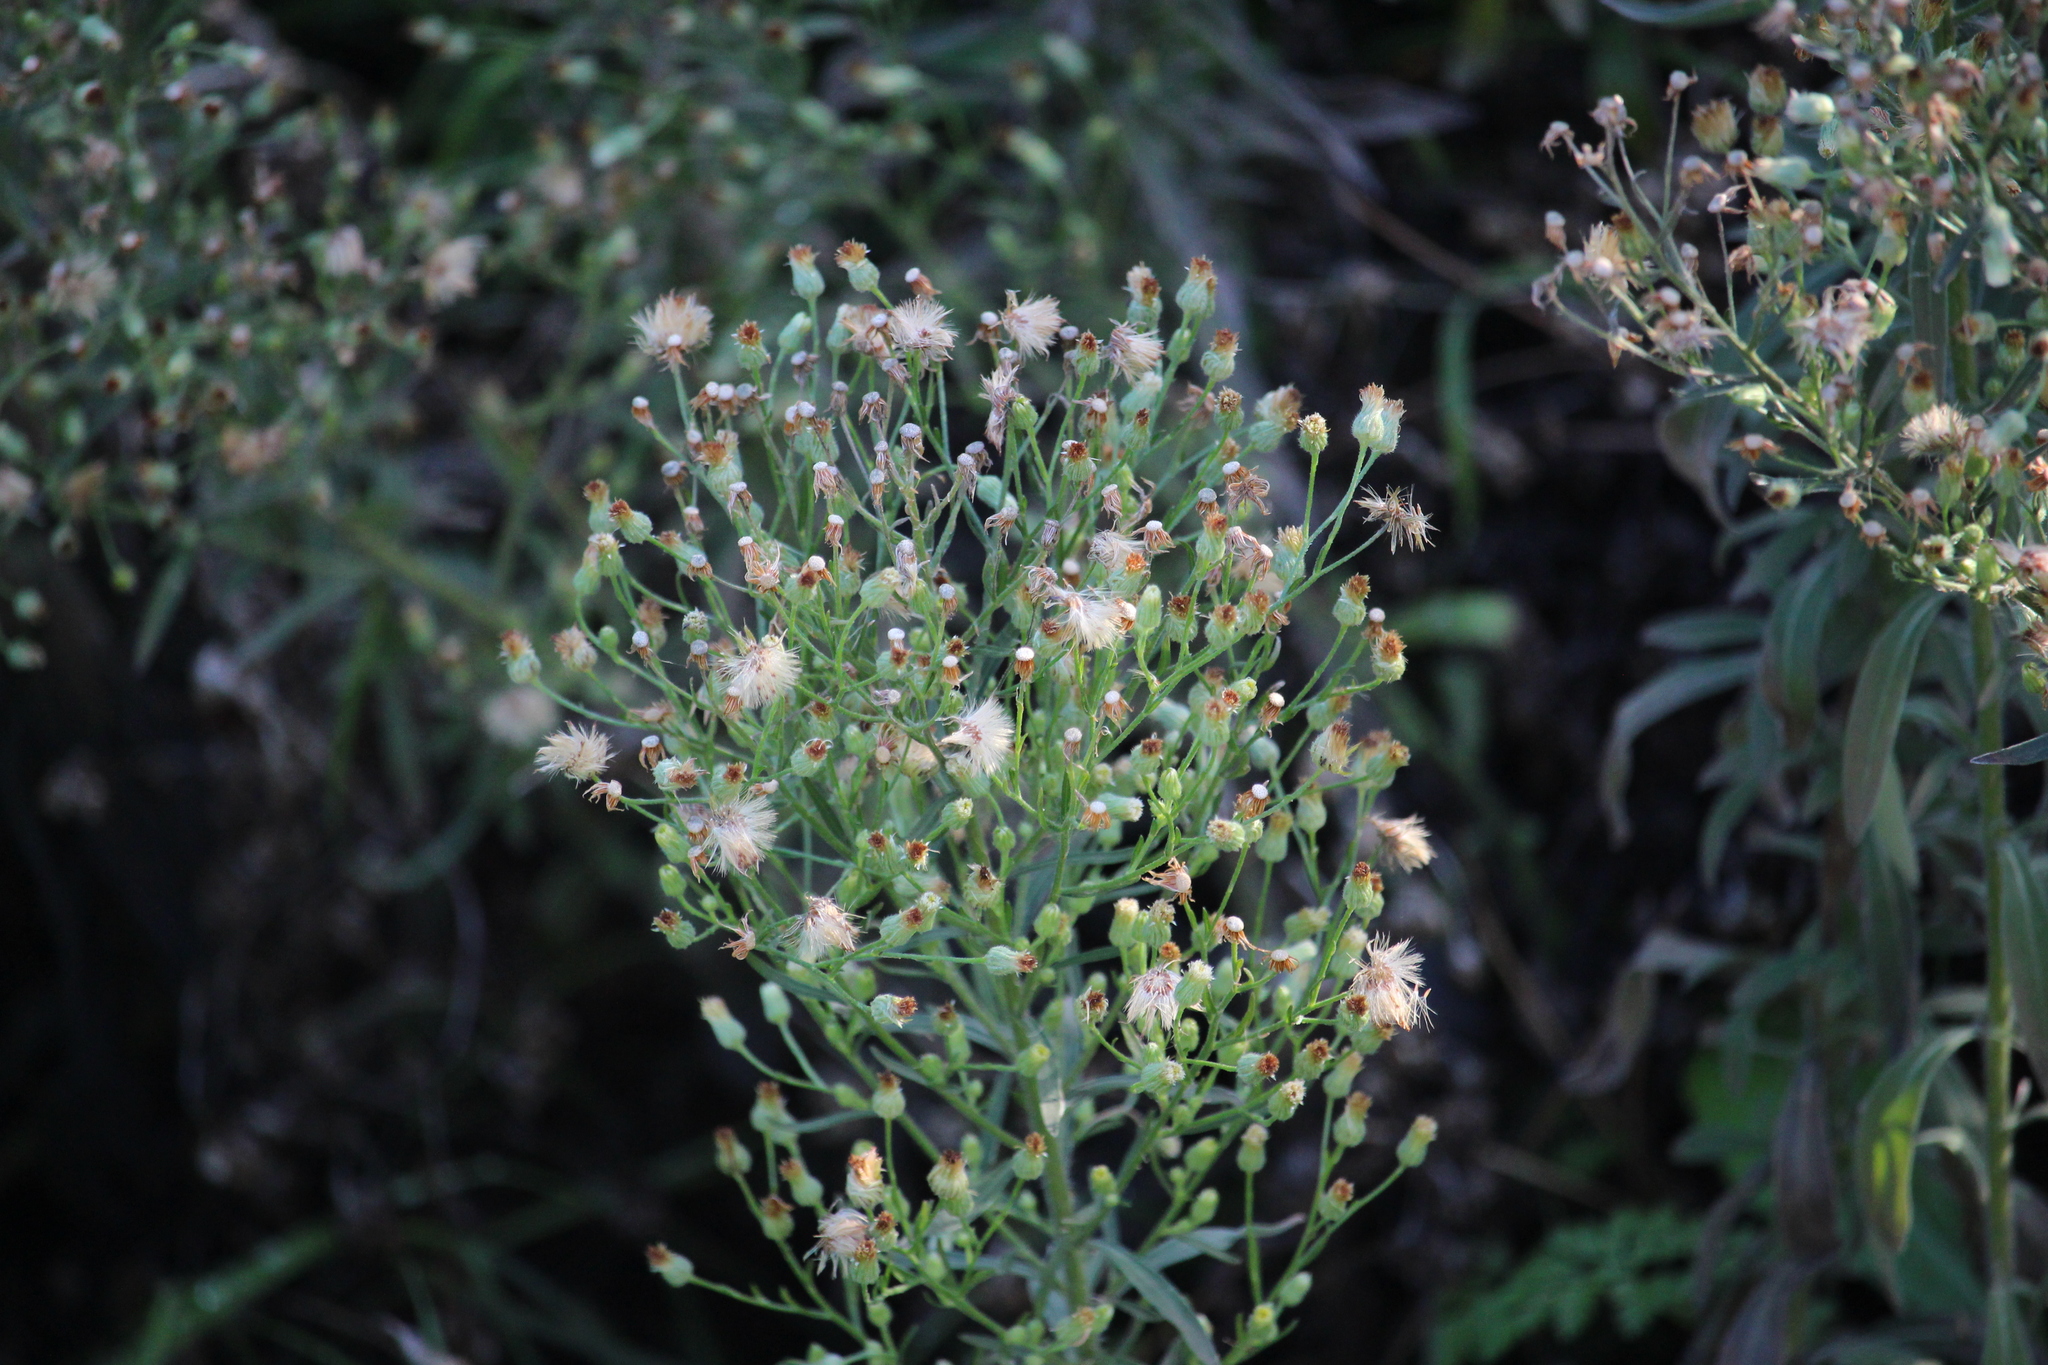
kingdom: Plantae
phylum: Tracheophyta
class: Magnoliopsida
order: Asterales
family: Asteraceae
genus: Erigeron
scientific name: Erigeron sumatrensis
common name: Daisy
